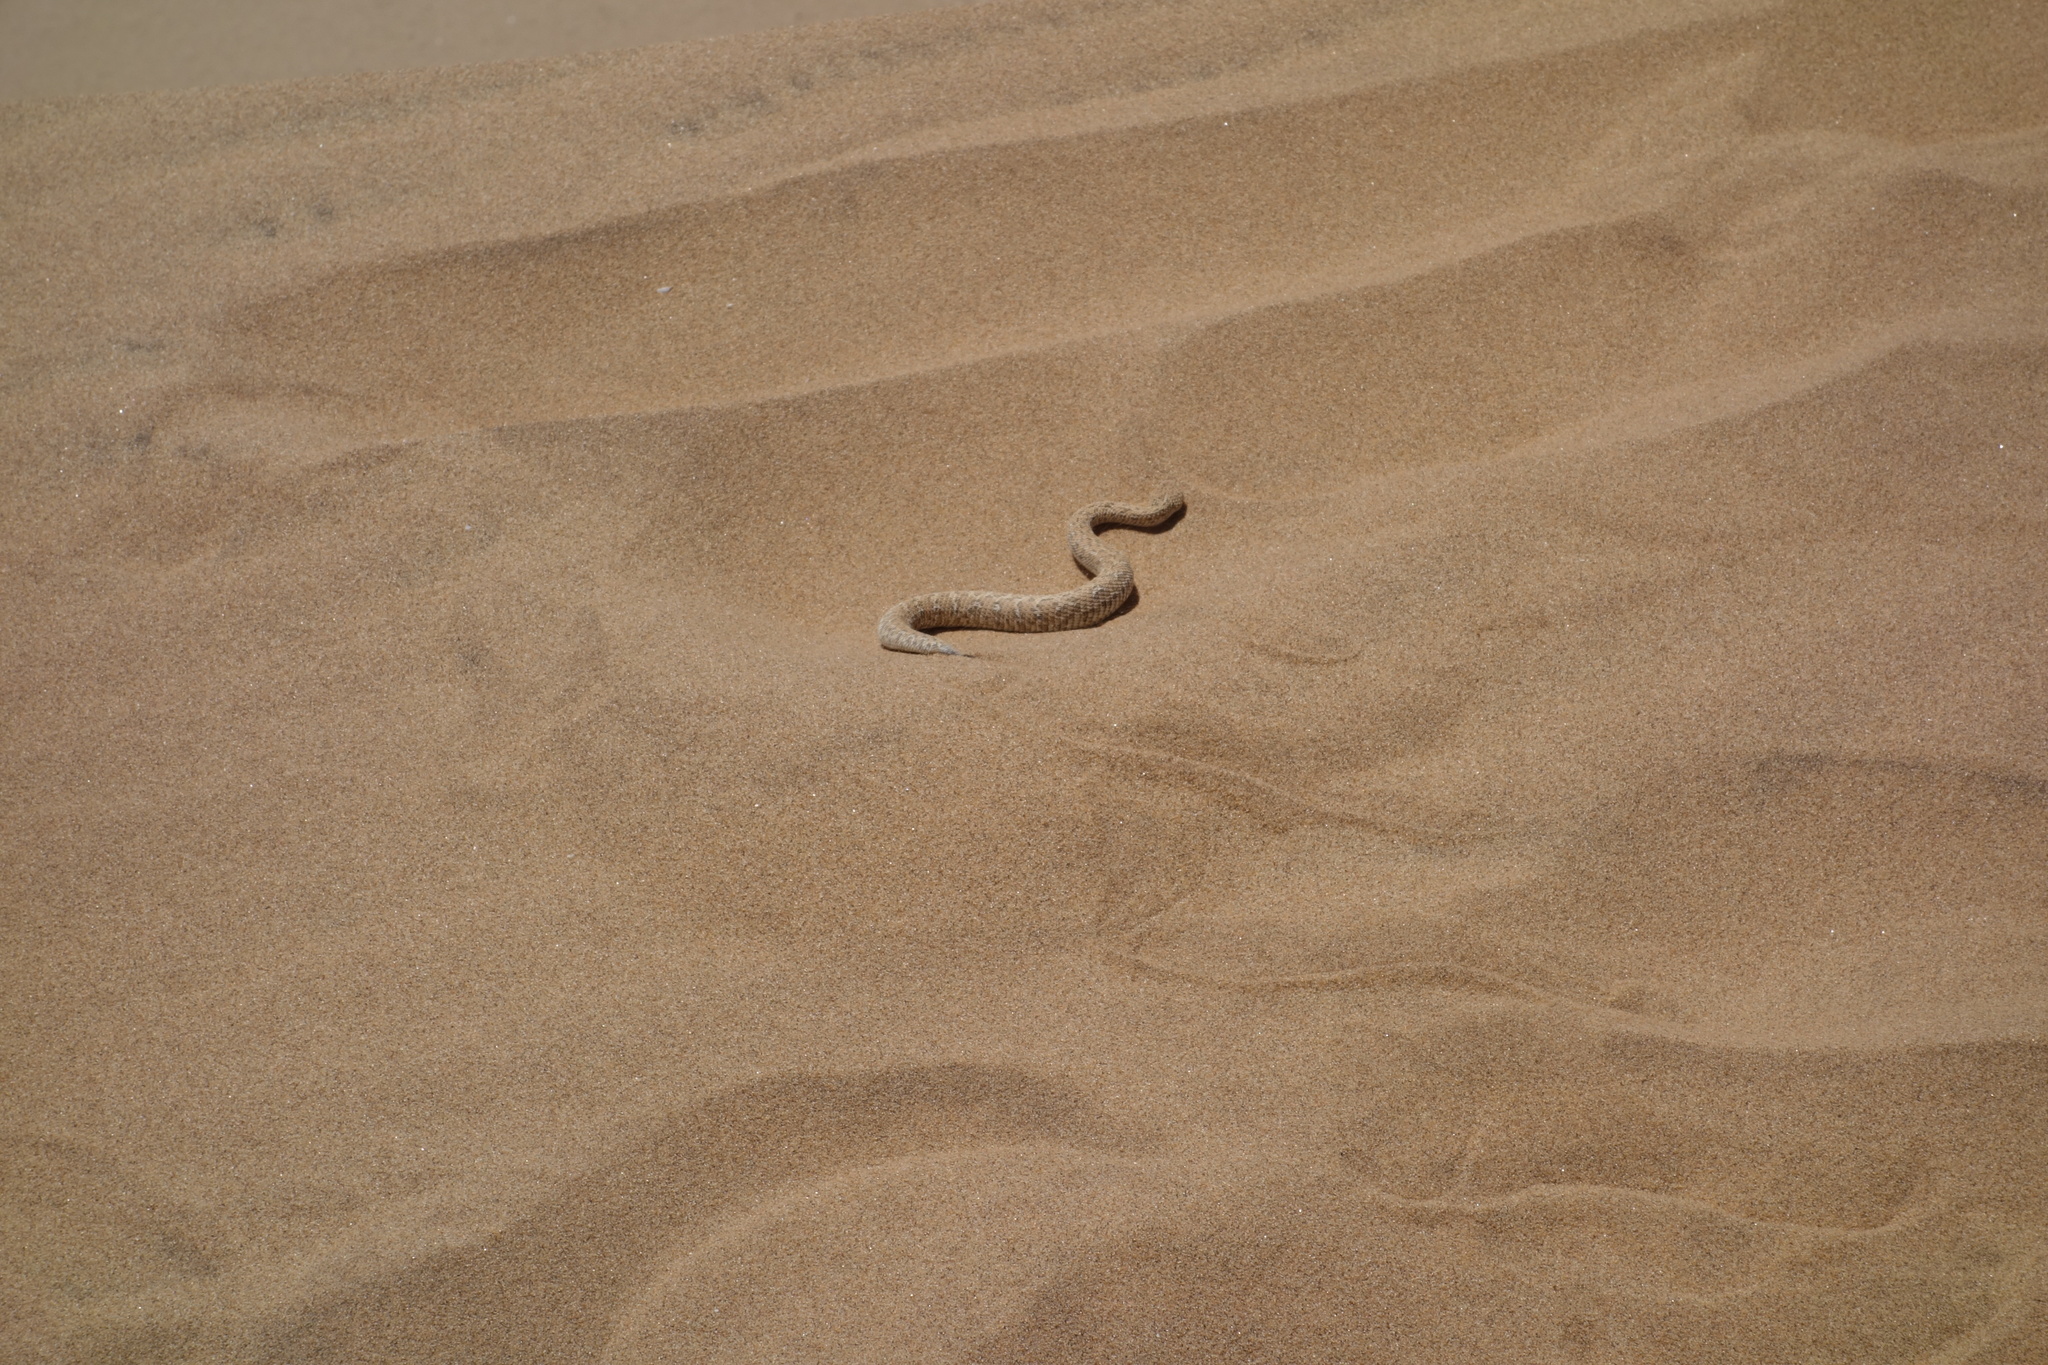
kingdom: Animalia
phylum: Chordata
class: Squamata
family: Viperidae
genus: Bitis
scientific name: Bitis peringueyi
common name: Dwarf puff adder
